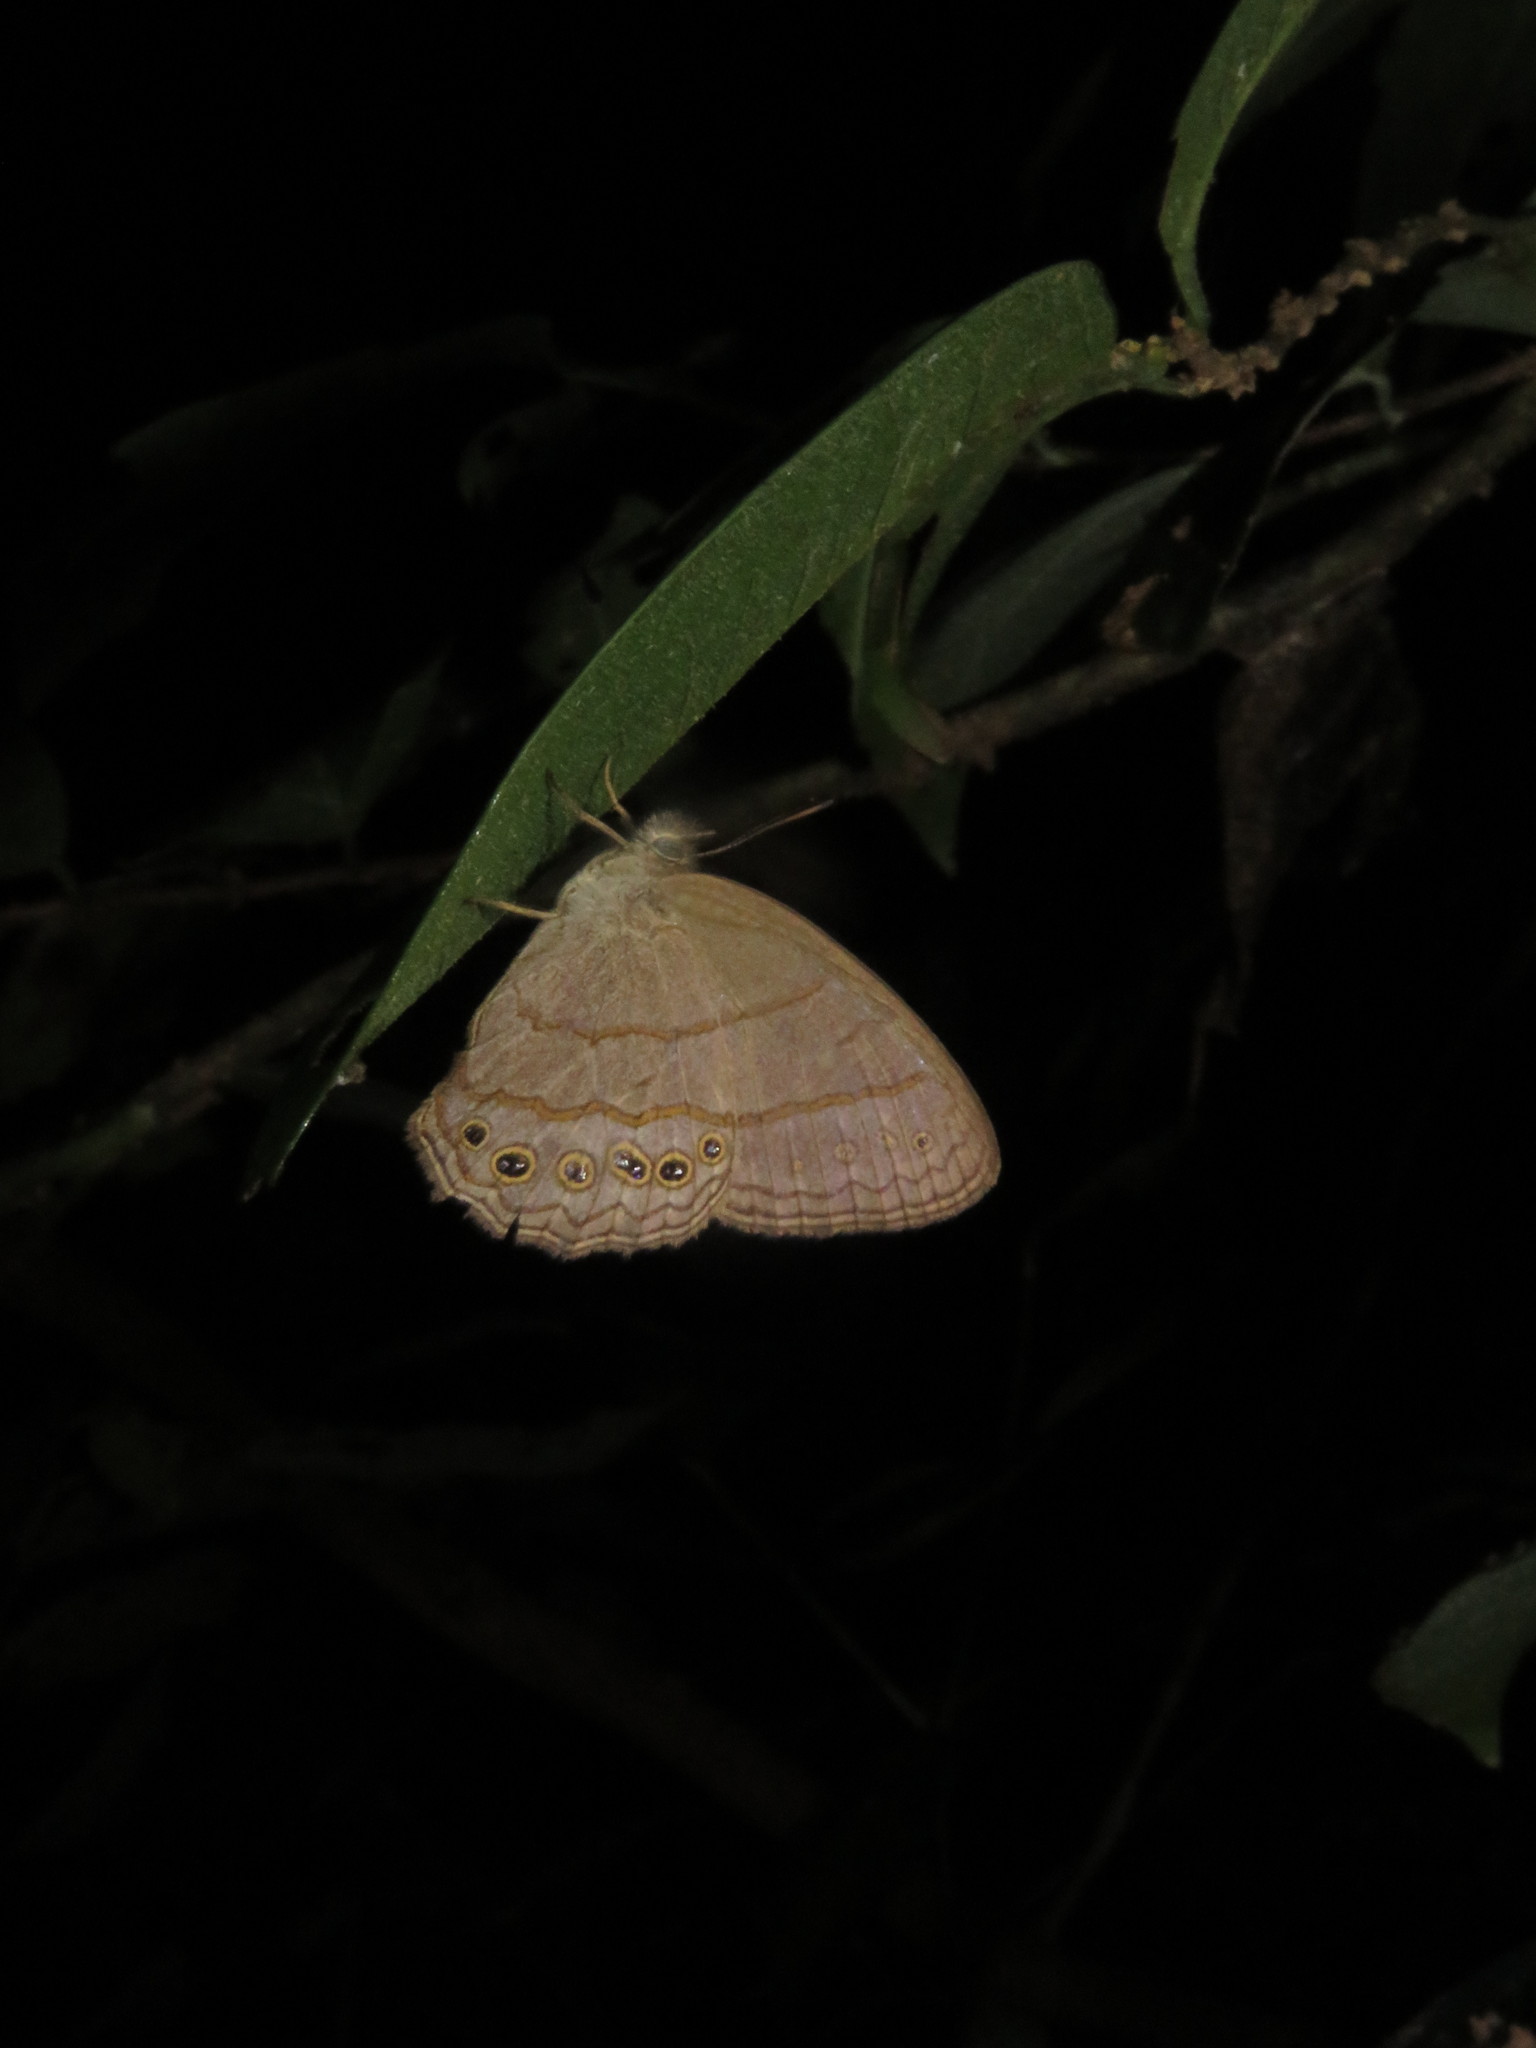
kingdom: Animalia
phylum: Arthropoda
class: Insecta
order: Lepidoptera
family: Nymphalidae
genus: Paryphthimoides
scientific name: Paryphthimoides poltys
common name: Poltys satyr
